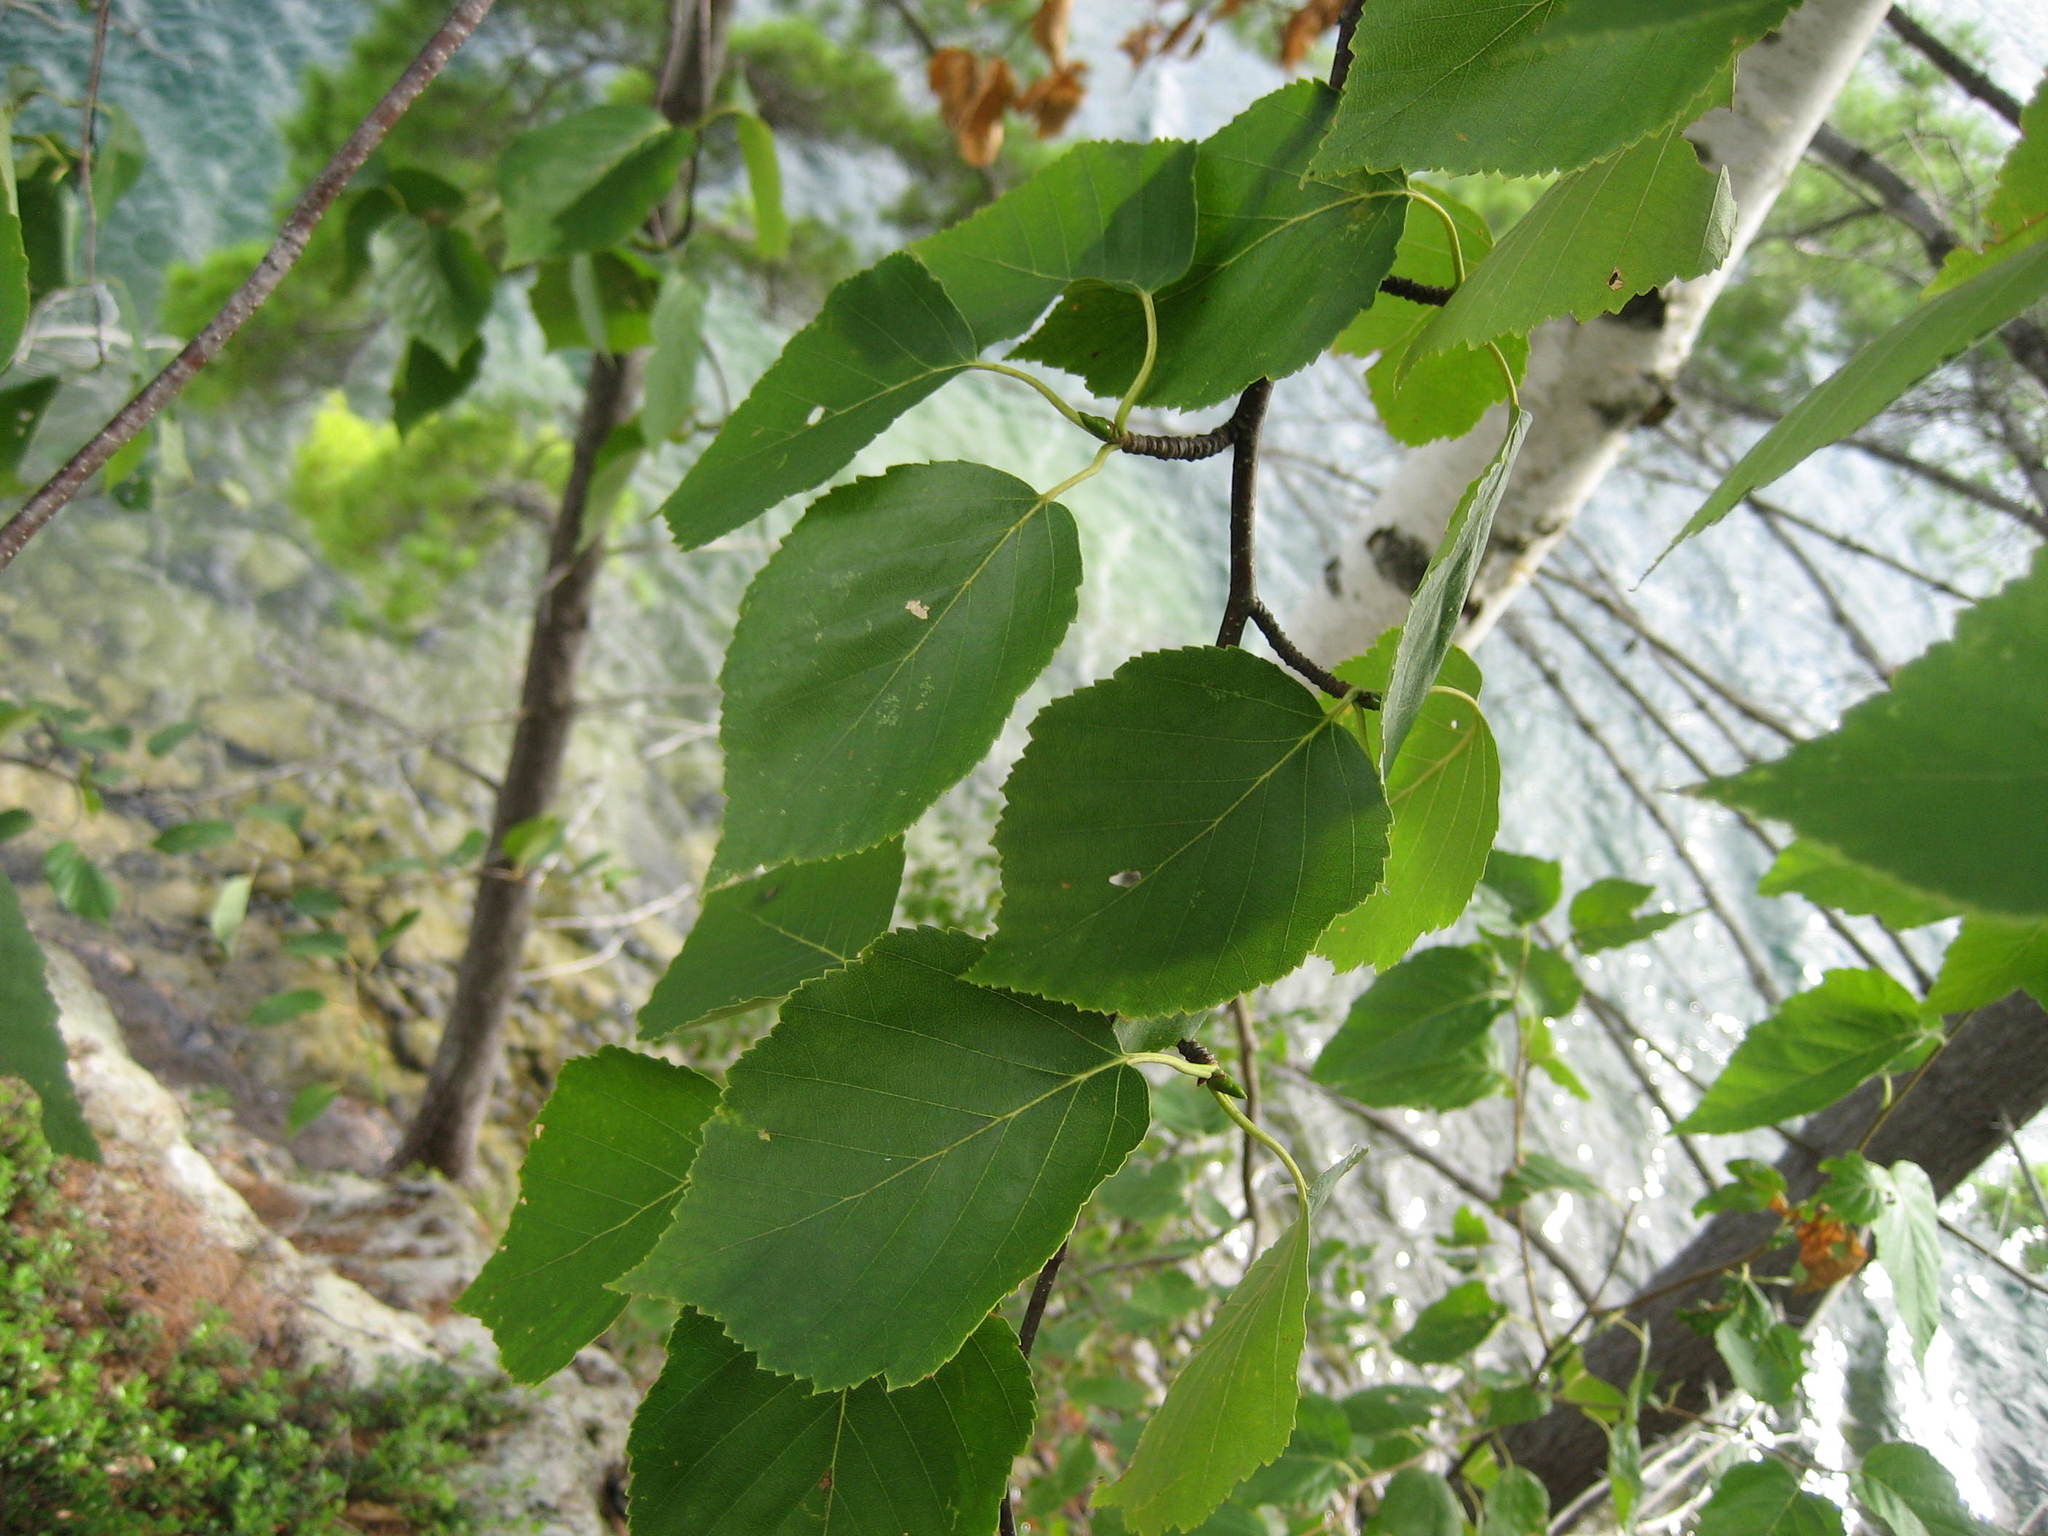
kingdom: Plantae
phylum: Tracheophyta
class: Magnoliopsida
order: Fagales
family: Betulaceae
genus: Betula
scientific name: Betula papyrifera
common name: Paper birch
